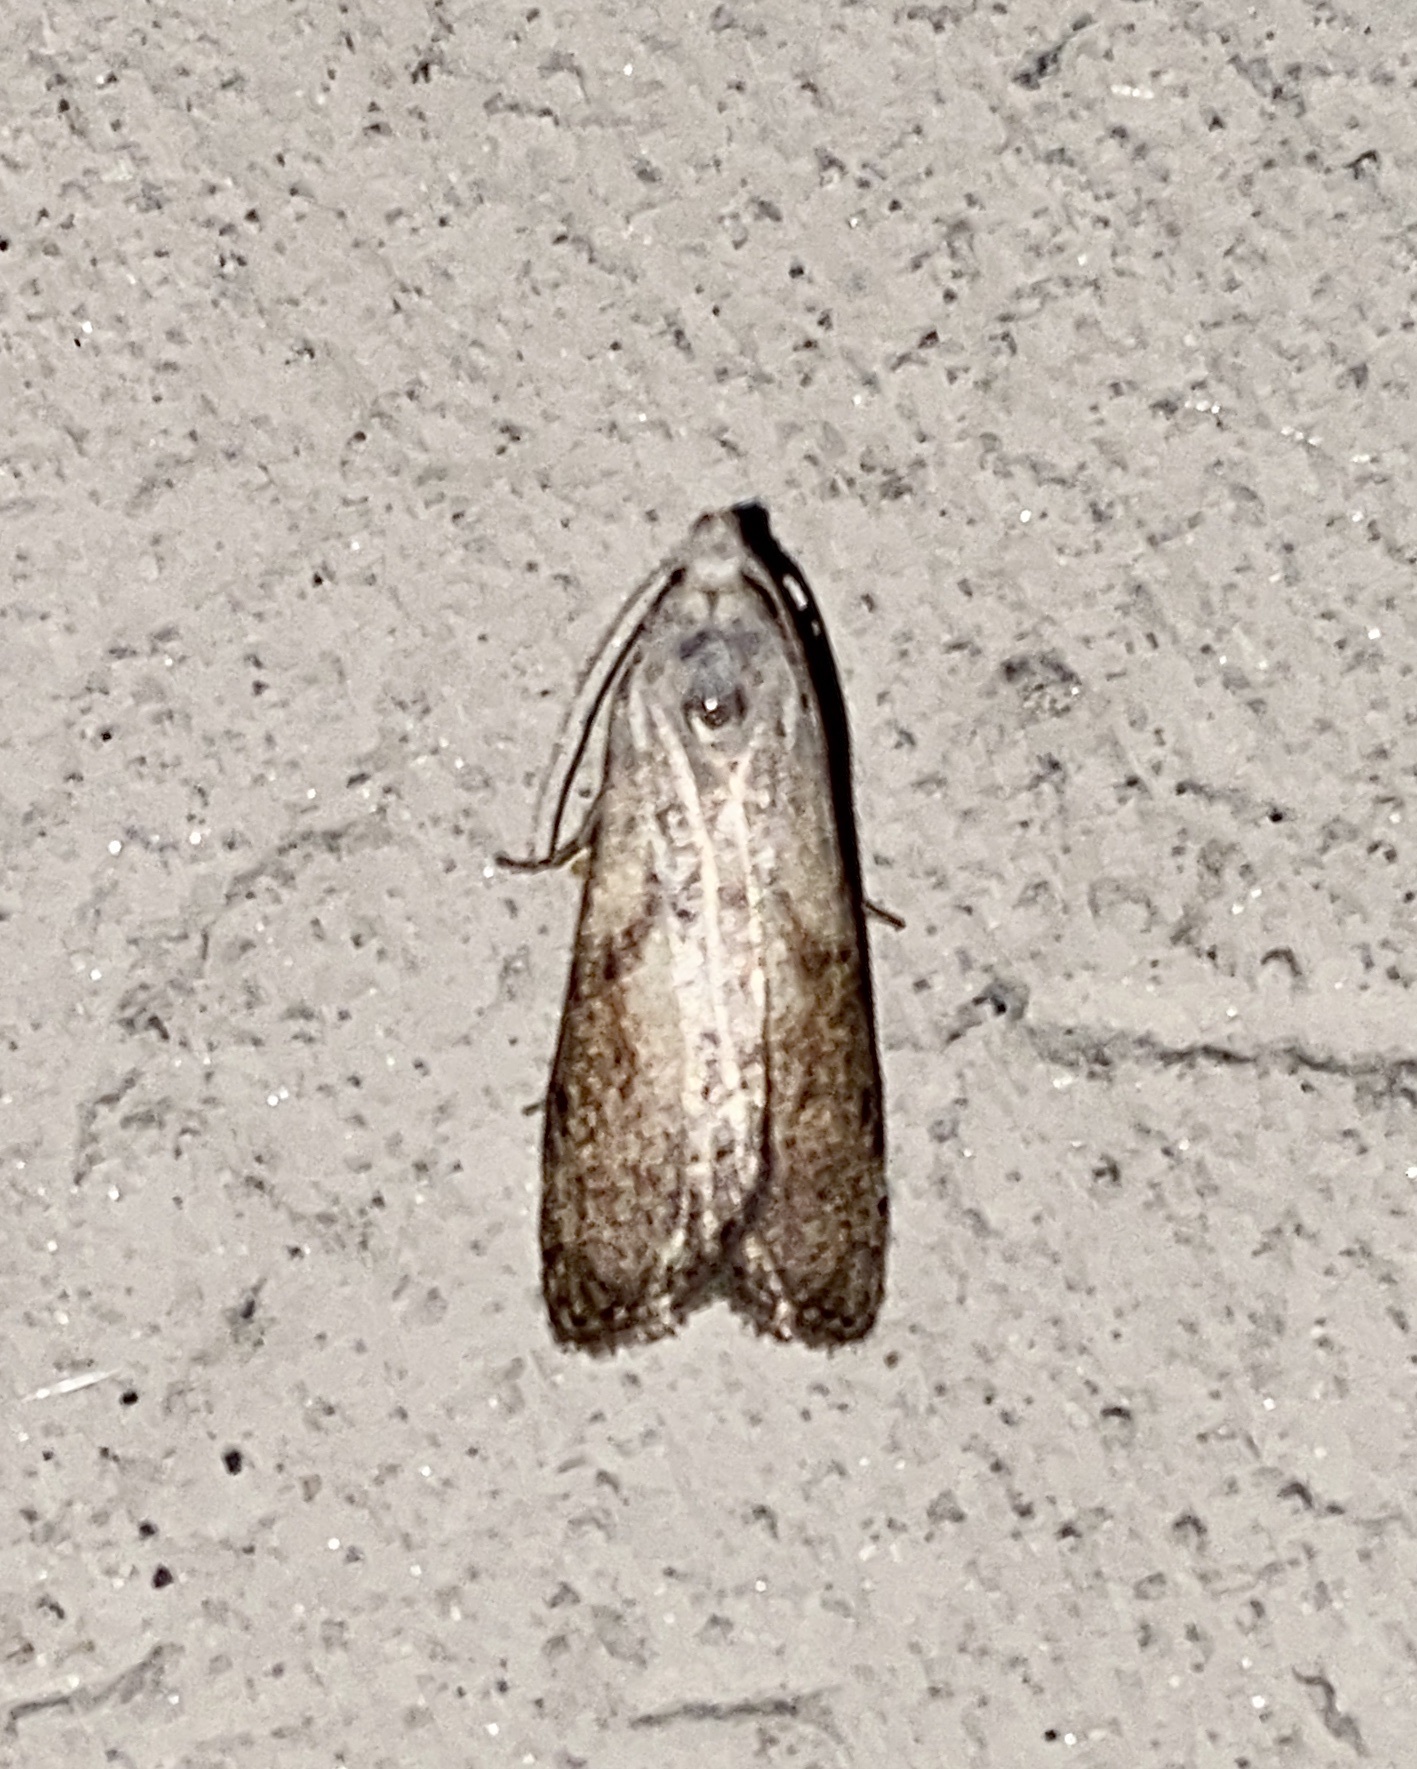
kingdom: Animalia
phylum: Arthropoda
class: Insecta
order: Lepidoptera
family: Pyralidae
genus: Aphomia
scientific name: Aphomia sociella
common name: Bee moth
